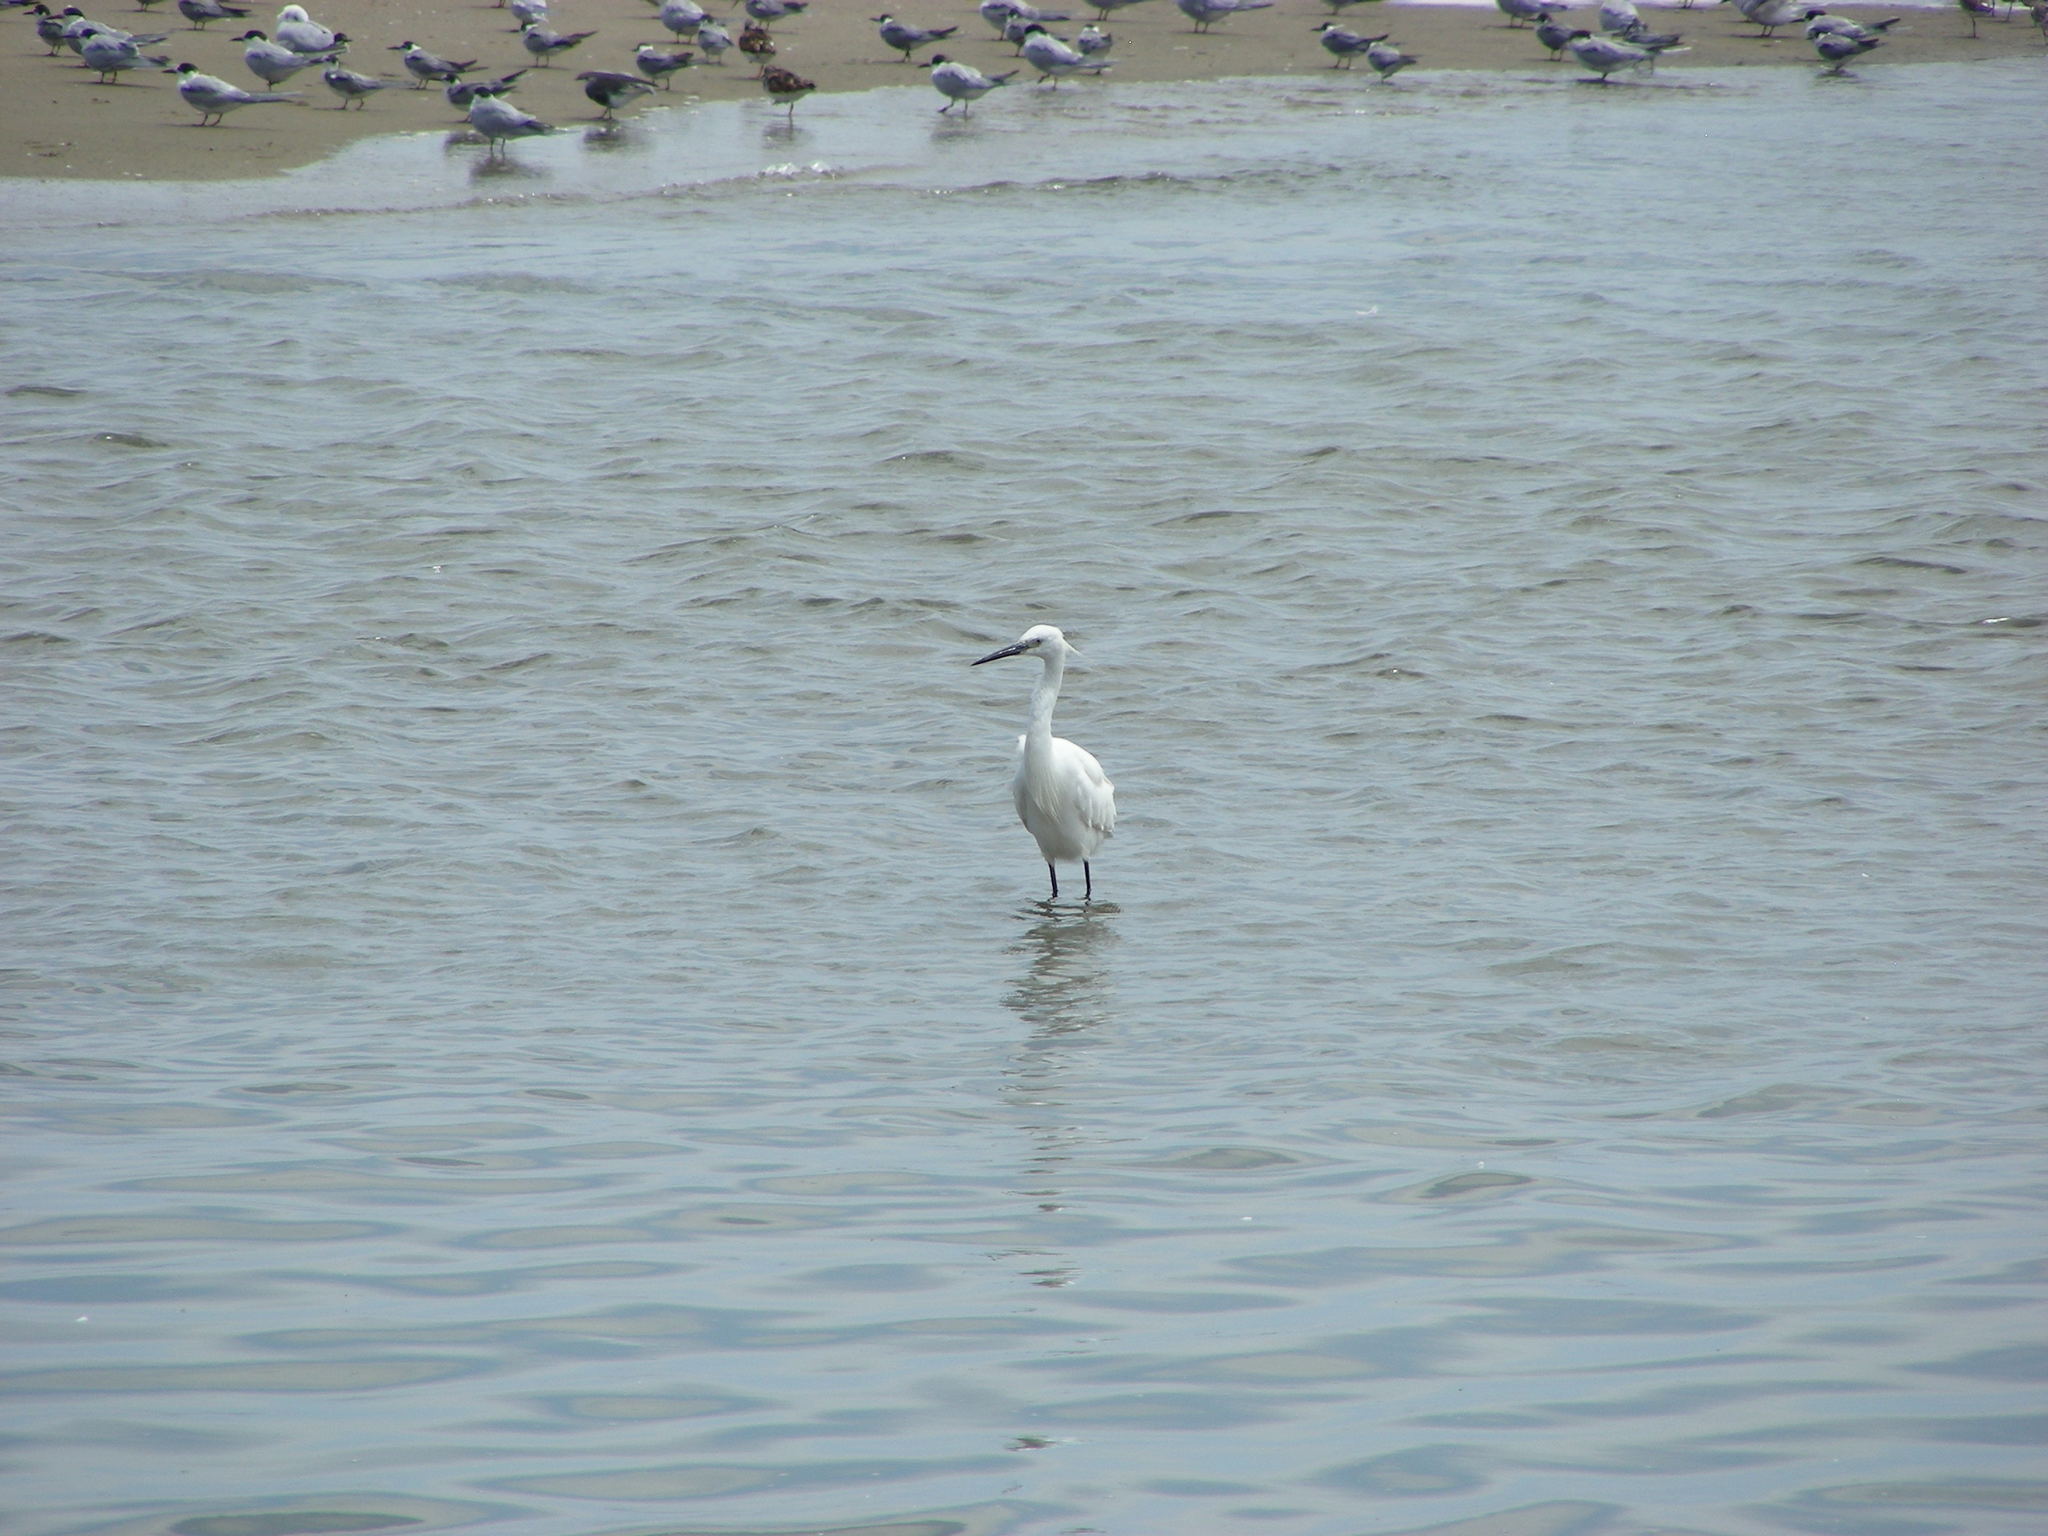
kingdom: Animalia
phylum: Chordata
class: Aves
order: Pelecaniformes
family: Ardeidae
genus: Egretta
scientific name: Egretta garzetta
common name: Little egret
